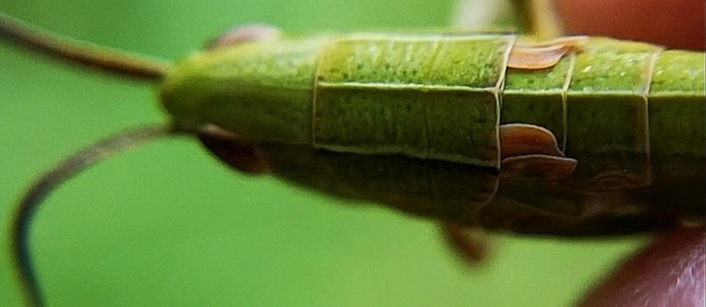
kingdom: Animalia
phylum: Arthropoda
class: Insecta
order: Orthoptera
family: Acrididae
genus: Euthystira
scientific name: Euthystira brachyptera
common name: Small gold grasshopper
